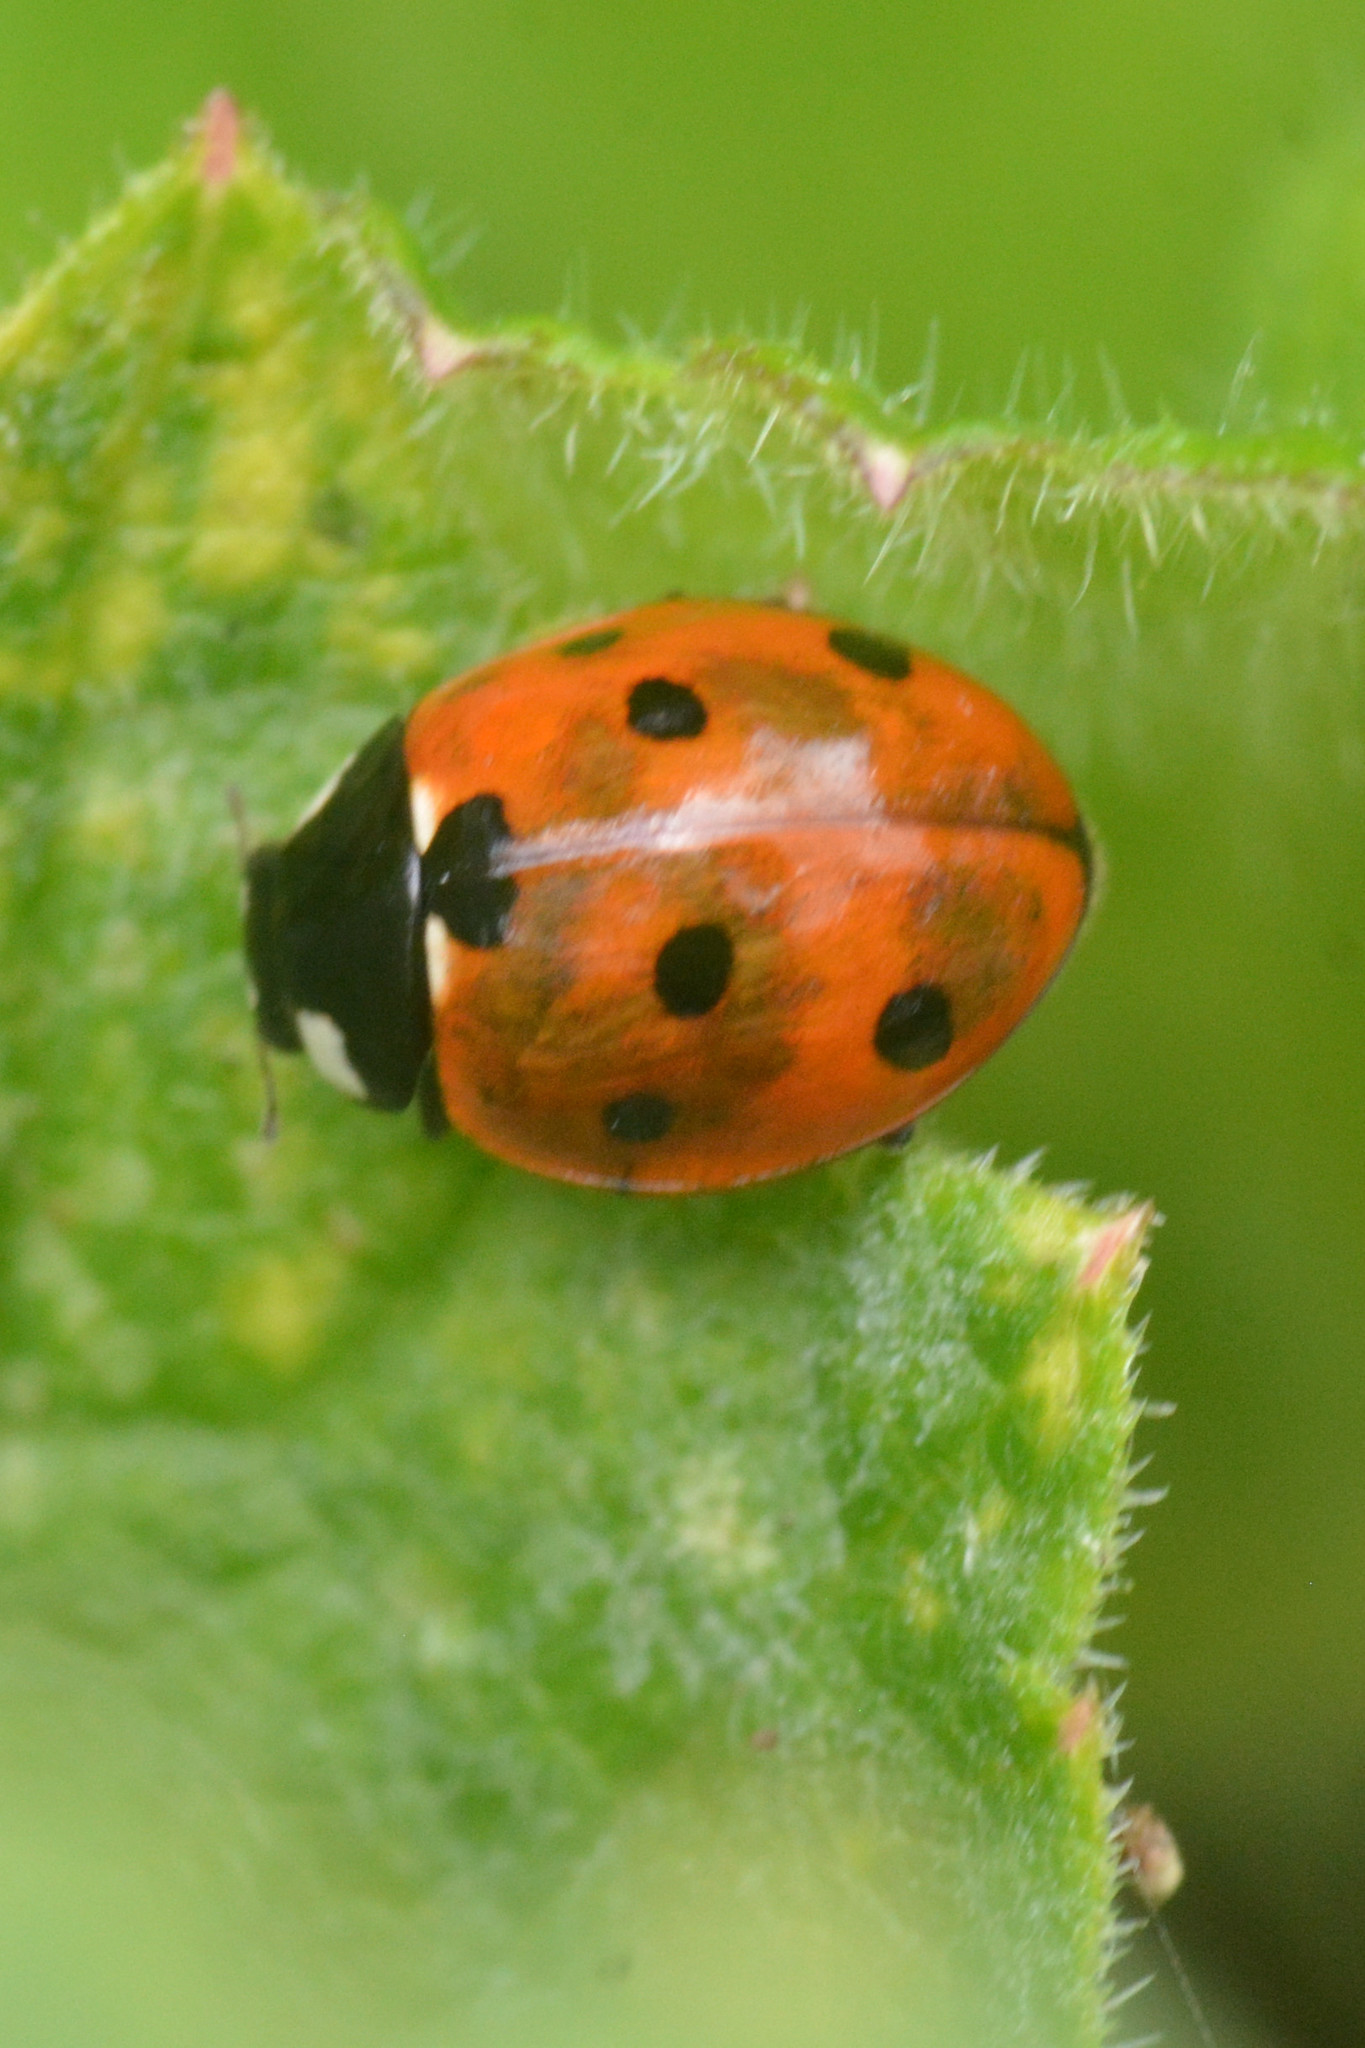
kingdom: Animalia
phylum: Arthropoda
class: Insecta
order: Coleoptera
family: Coccinellidae
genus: Coccinella
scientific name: Coccinella septempunctata
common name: Sevenspotted lady beetle
